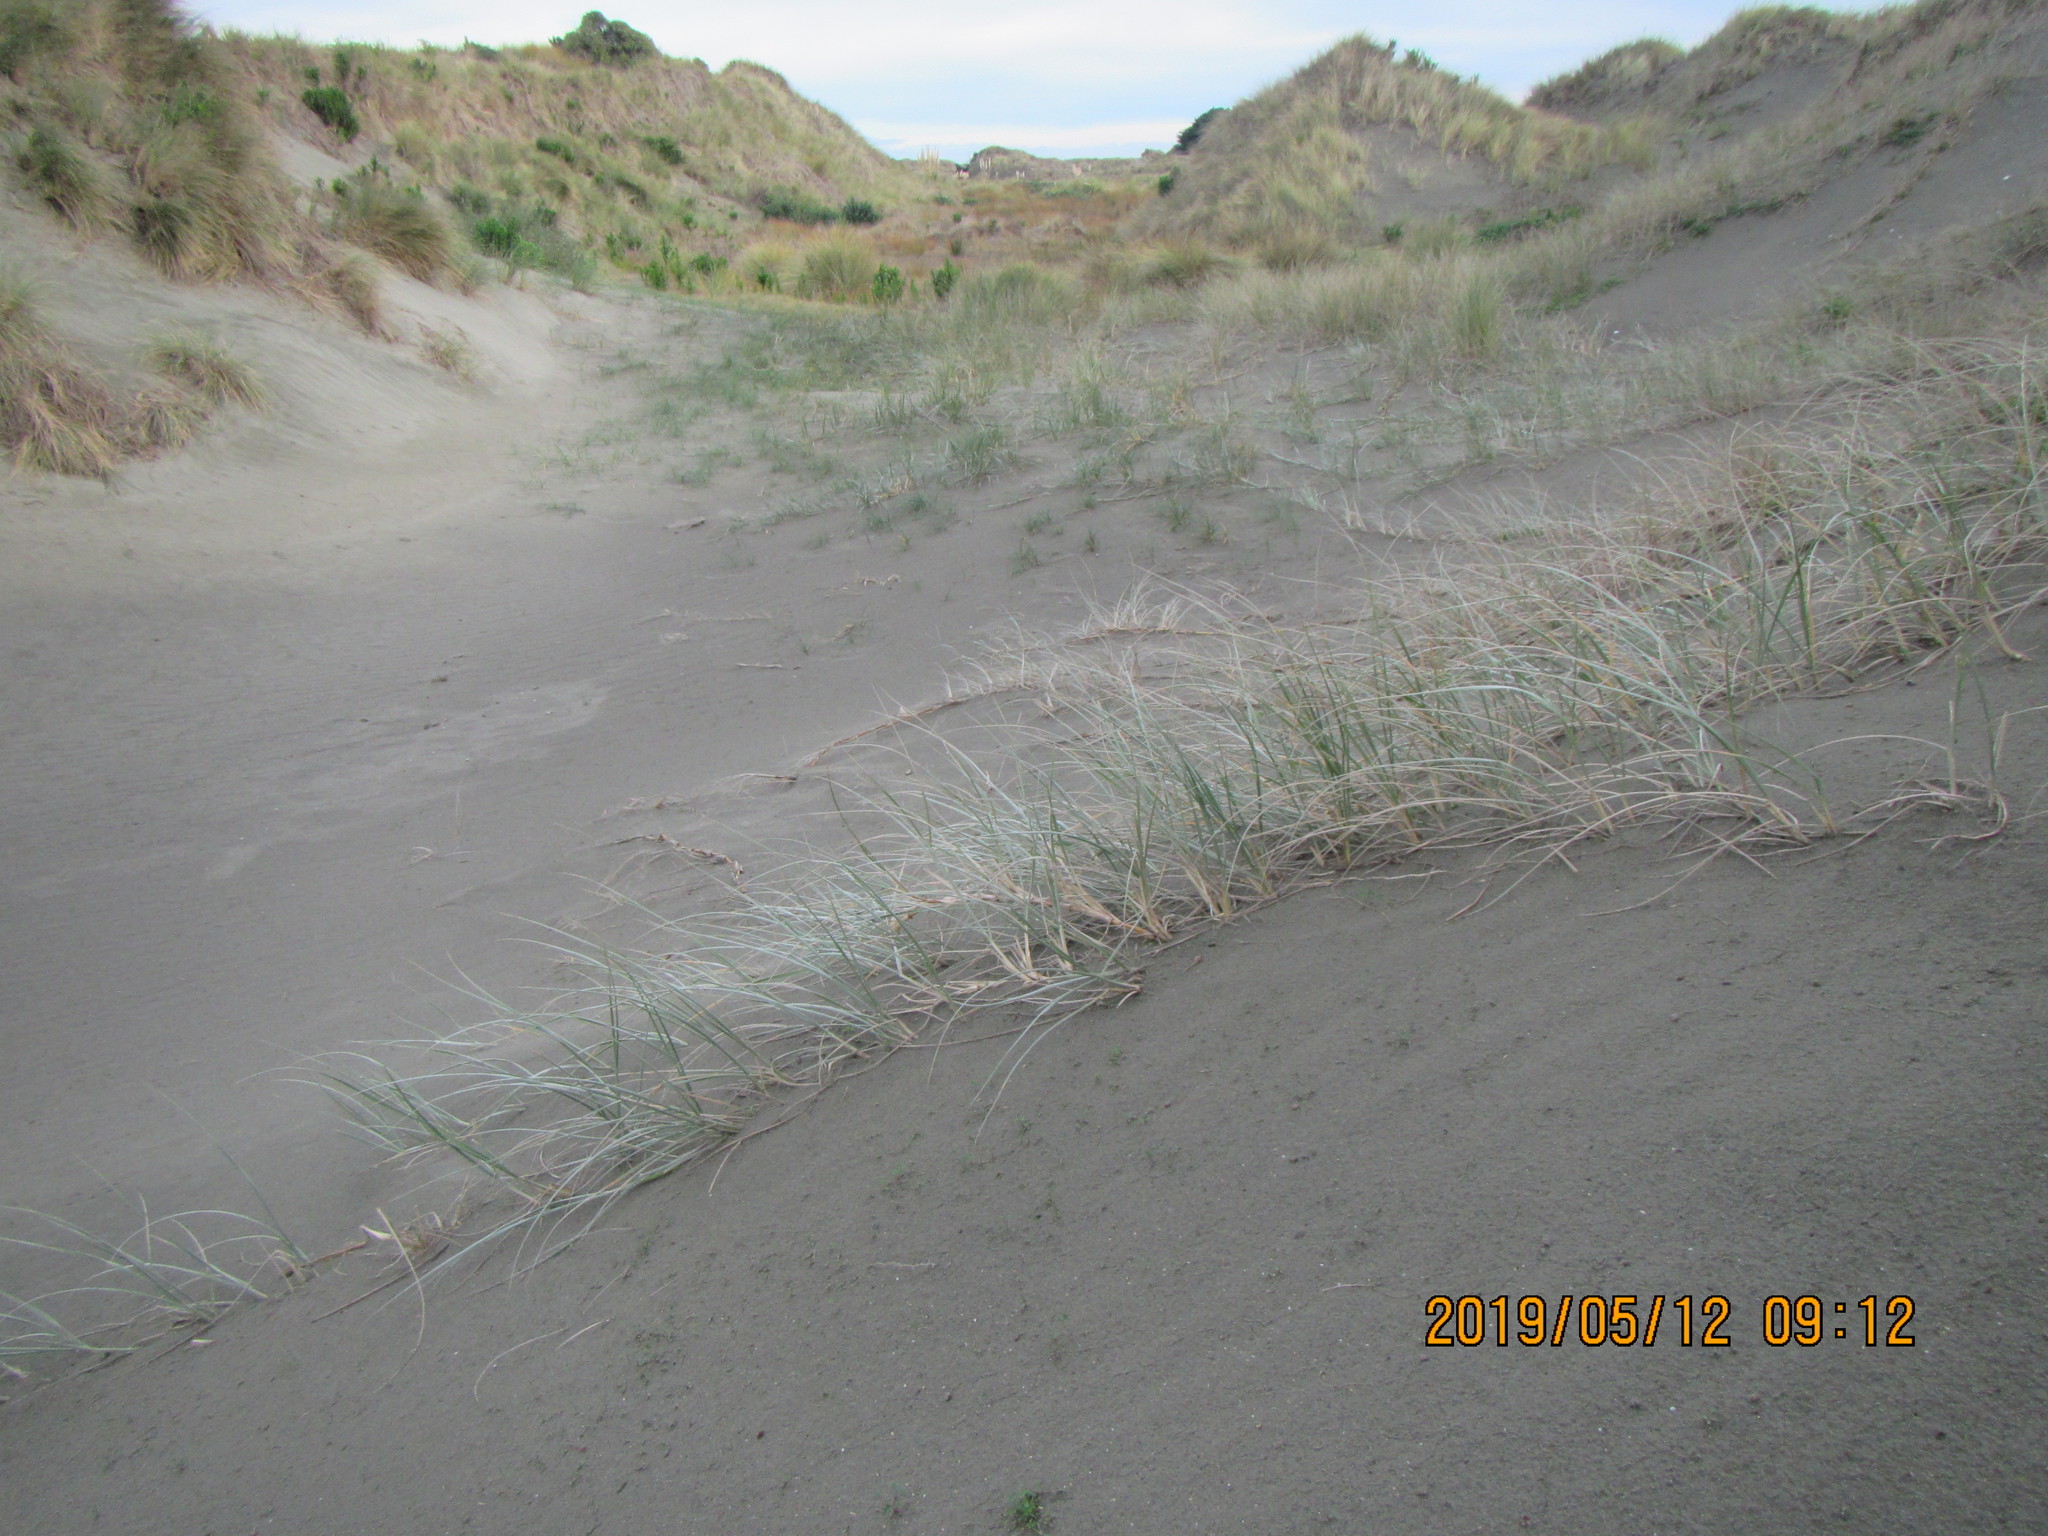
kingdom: Plantae
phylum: Tracheophyta
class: Liliopsida
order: Poales
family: Poaceae
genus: Spinifex
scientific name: Spinifex sericeus
